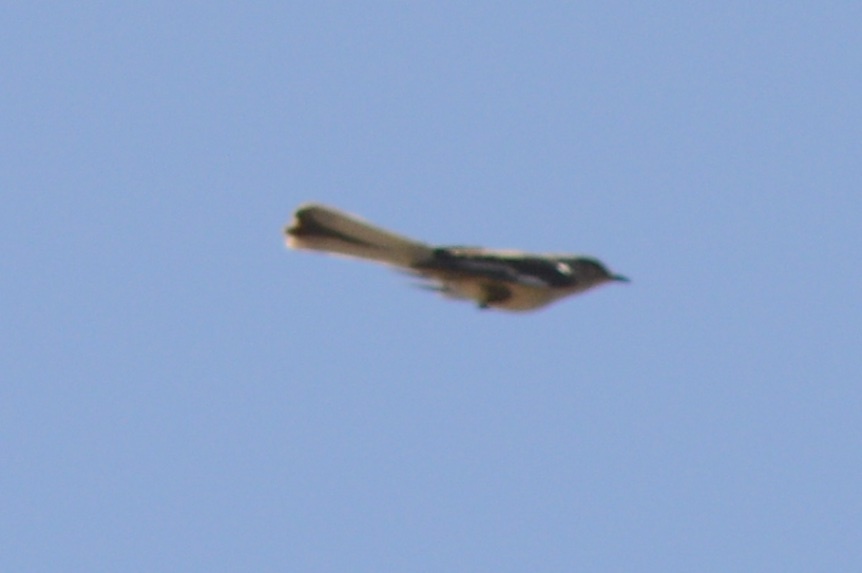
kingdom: Animalia
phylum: Chordata
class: Aves
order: Passeriformes
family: Mimidae
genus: Mimus
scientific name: Mimus polyglottos
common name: Northern mockingbird
